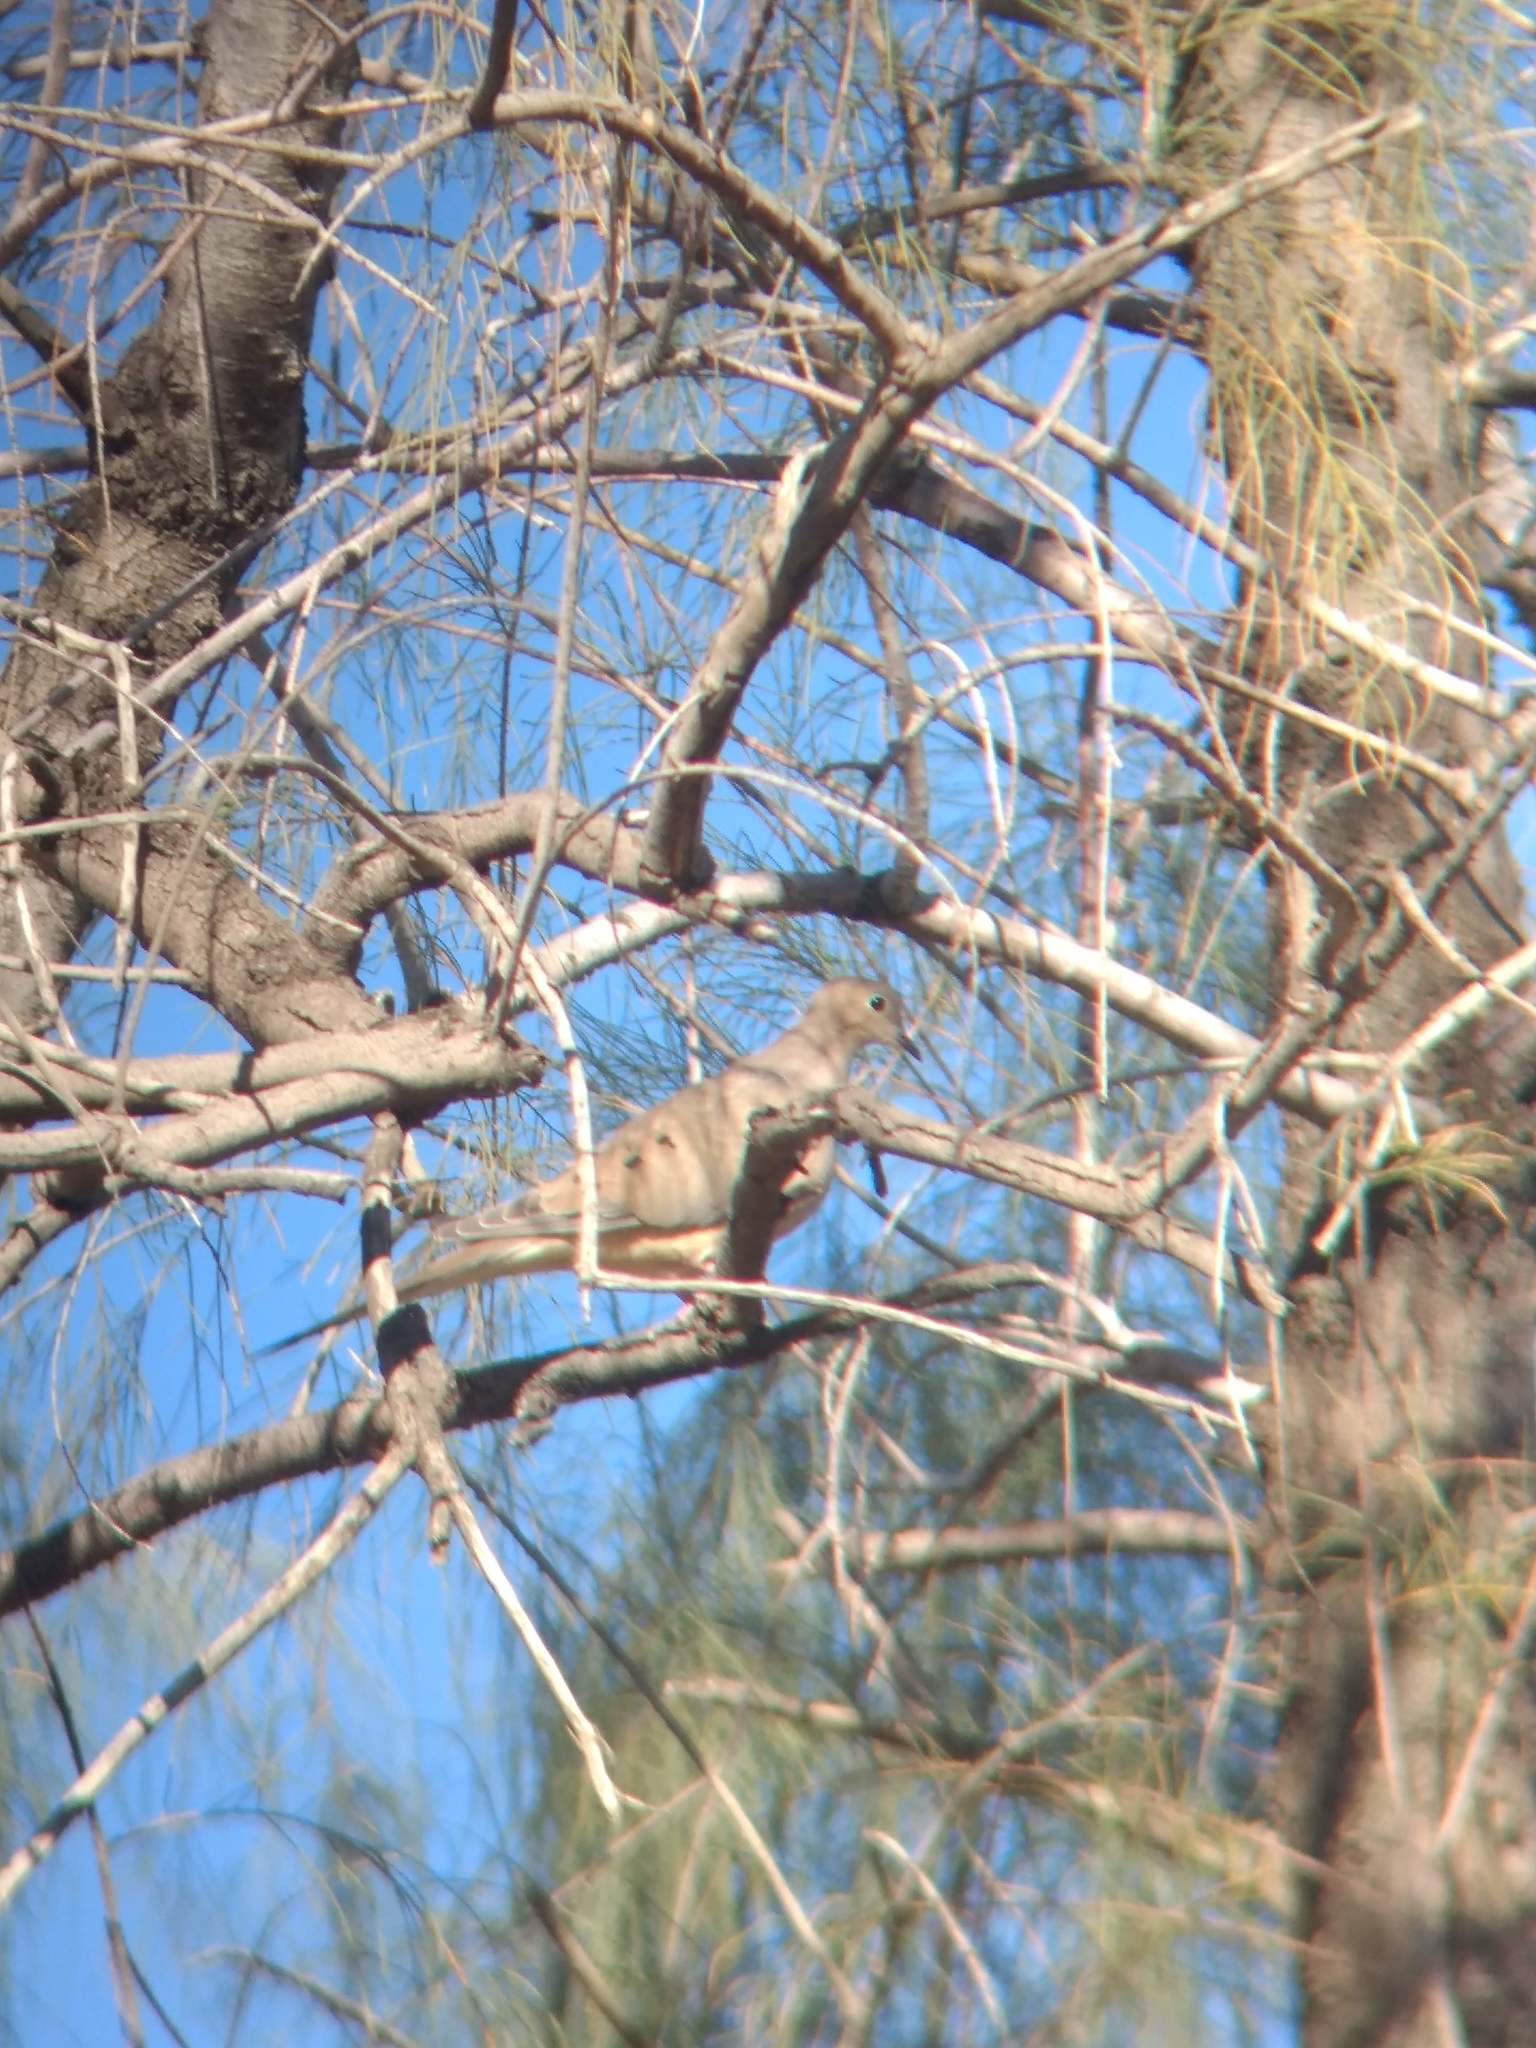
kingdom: Animalia
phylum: Chordata
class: Aves
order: Columbiformes
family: Columbidae
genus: Zenaida
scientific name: Zenaida macroura
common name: Mourning dove
